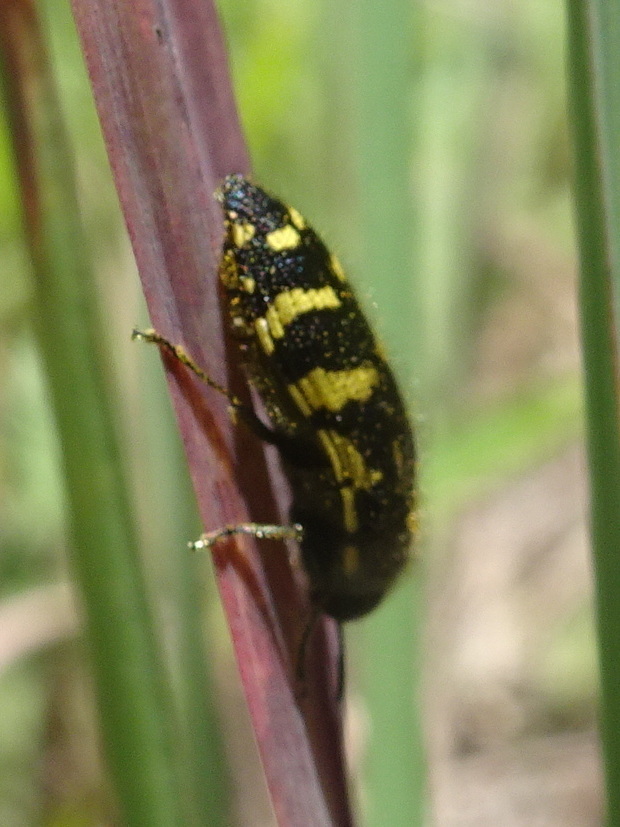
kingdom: Animalia
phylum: Arthropoda
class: Insecta
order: Coleoptera
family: Buprestidae
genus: Acmaeodera
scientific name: Acmaeodera pulchella
